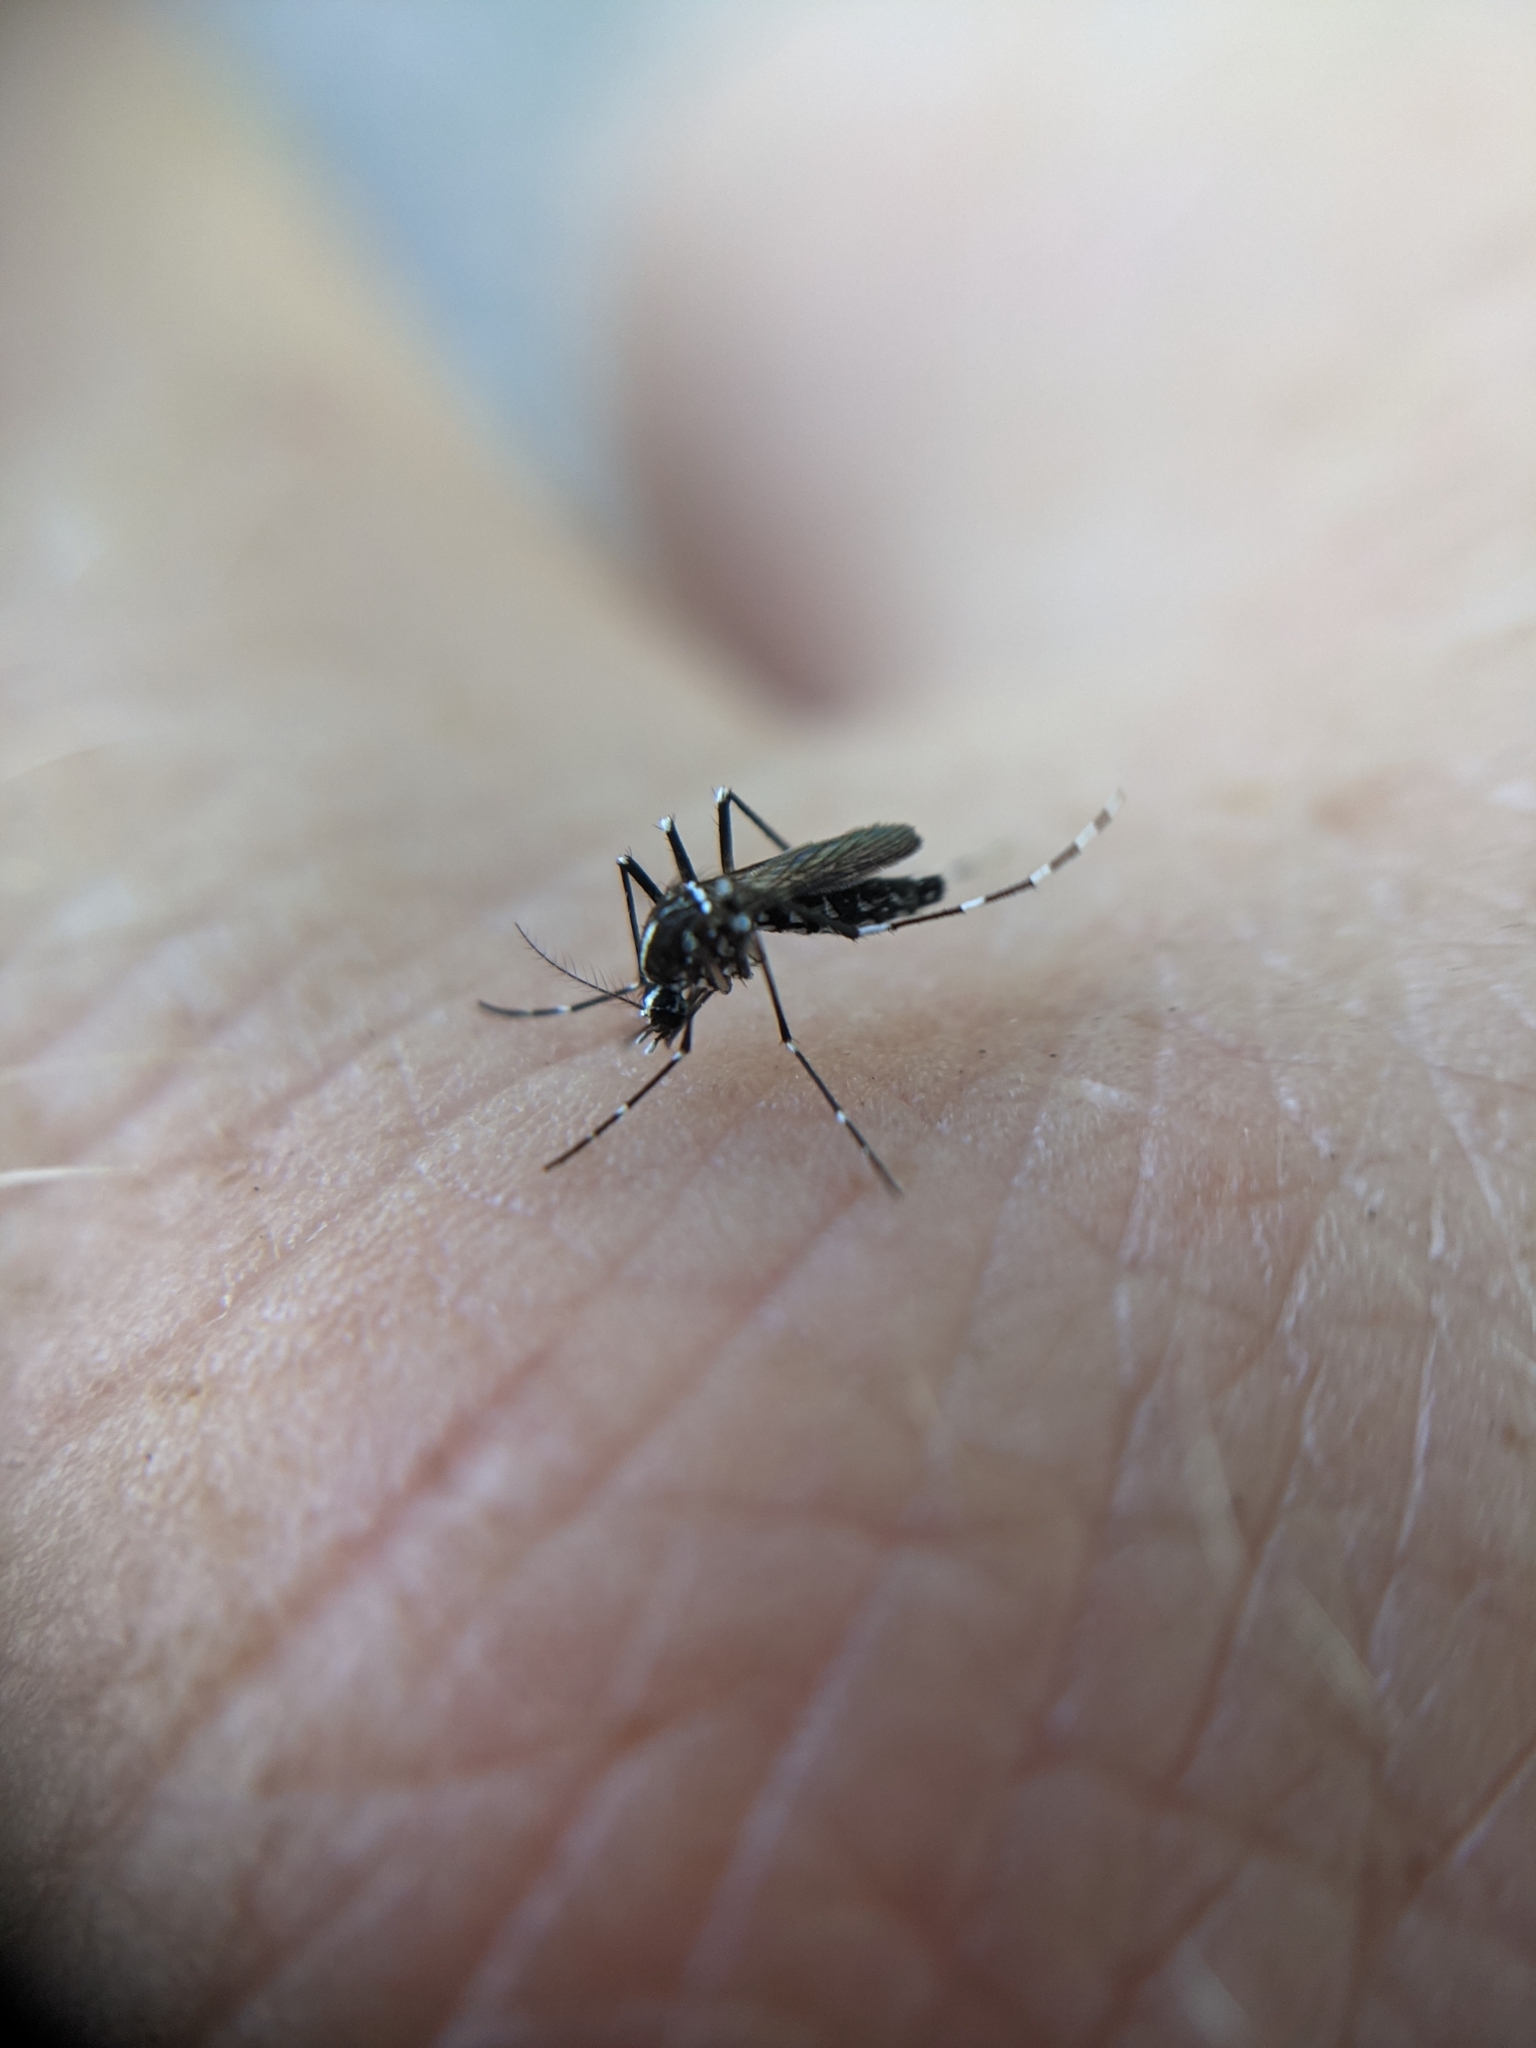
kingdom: Animalia
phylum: Arthropoda
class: Insecta
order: Diptera
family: Culicidae
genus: Aedes
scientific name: Aedes albopictus
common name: Tiger mosquito
